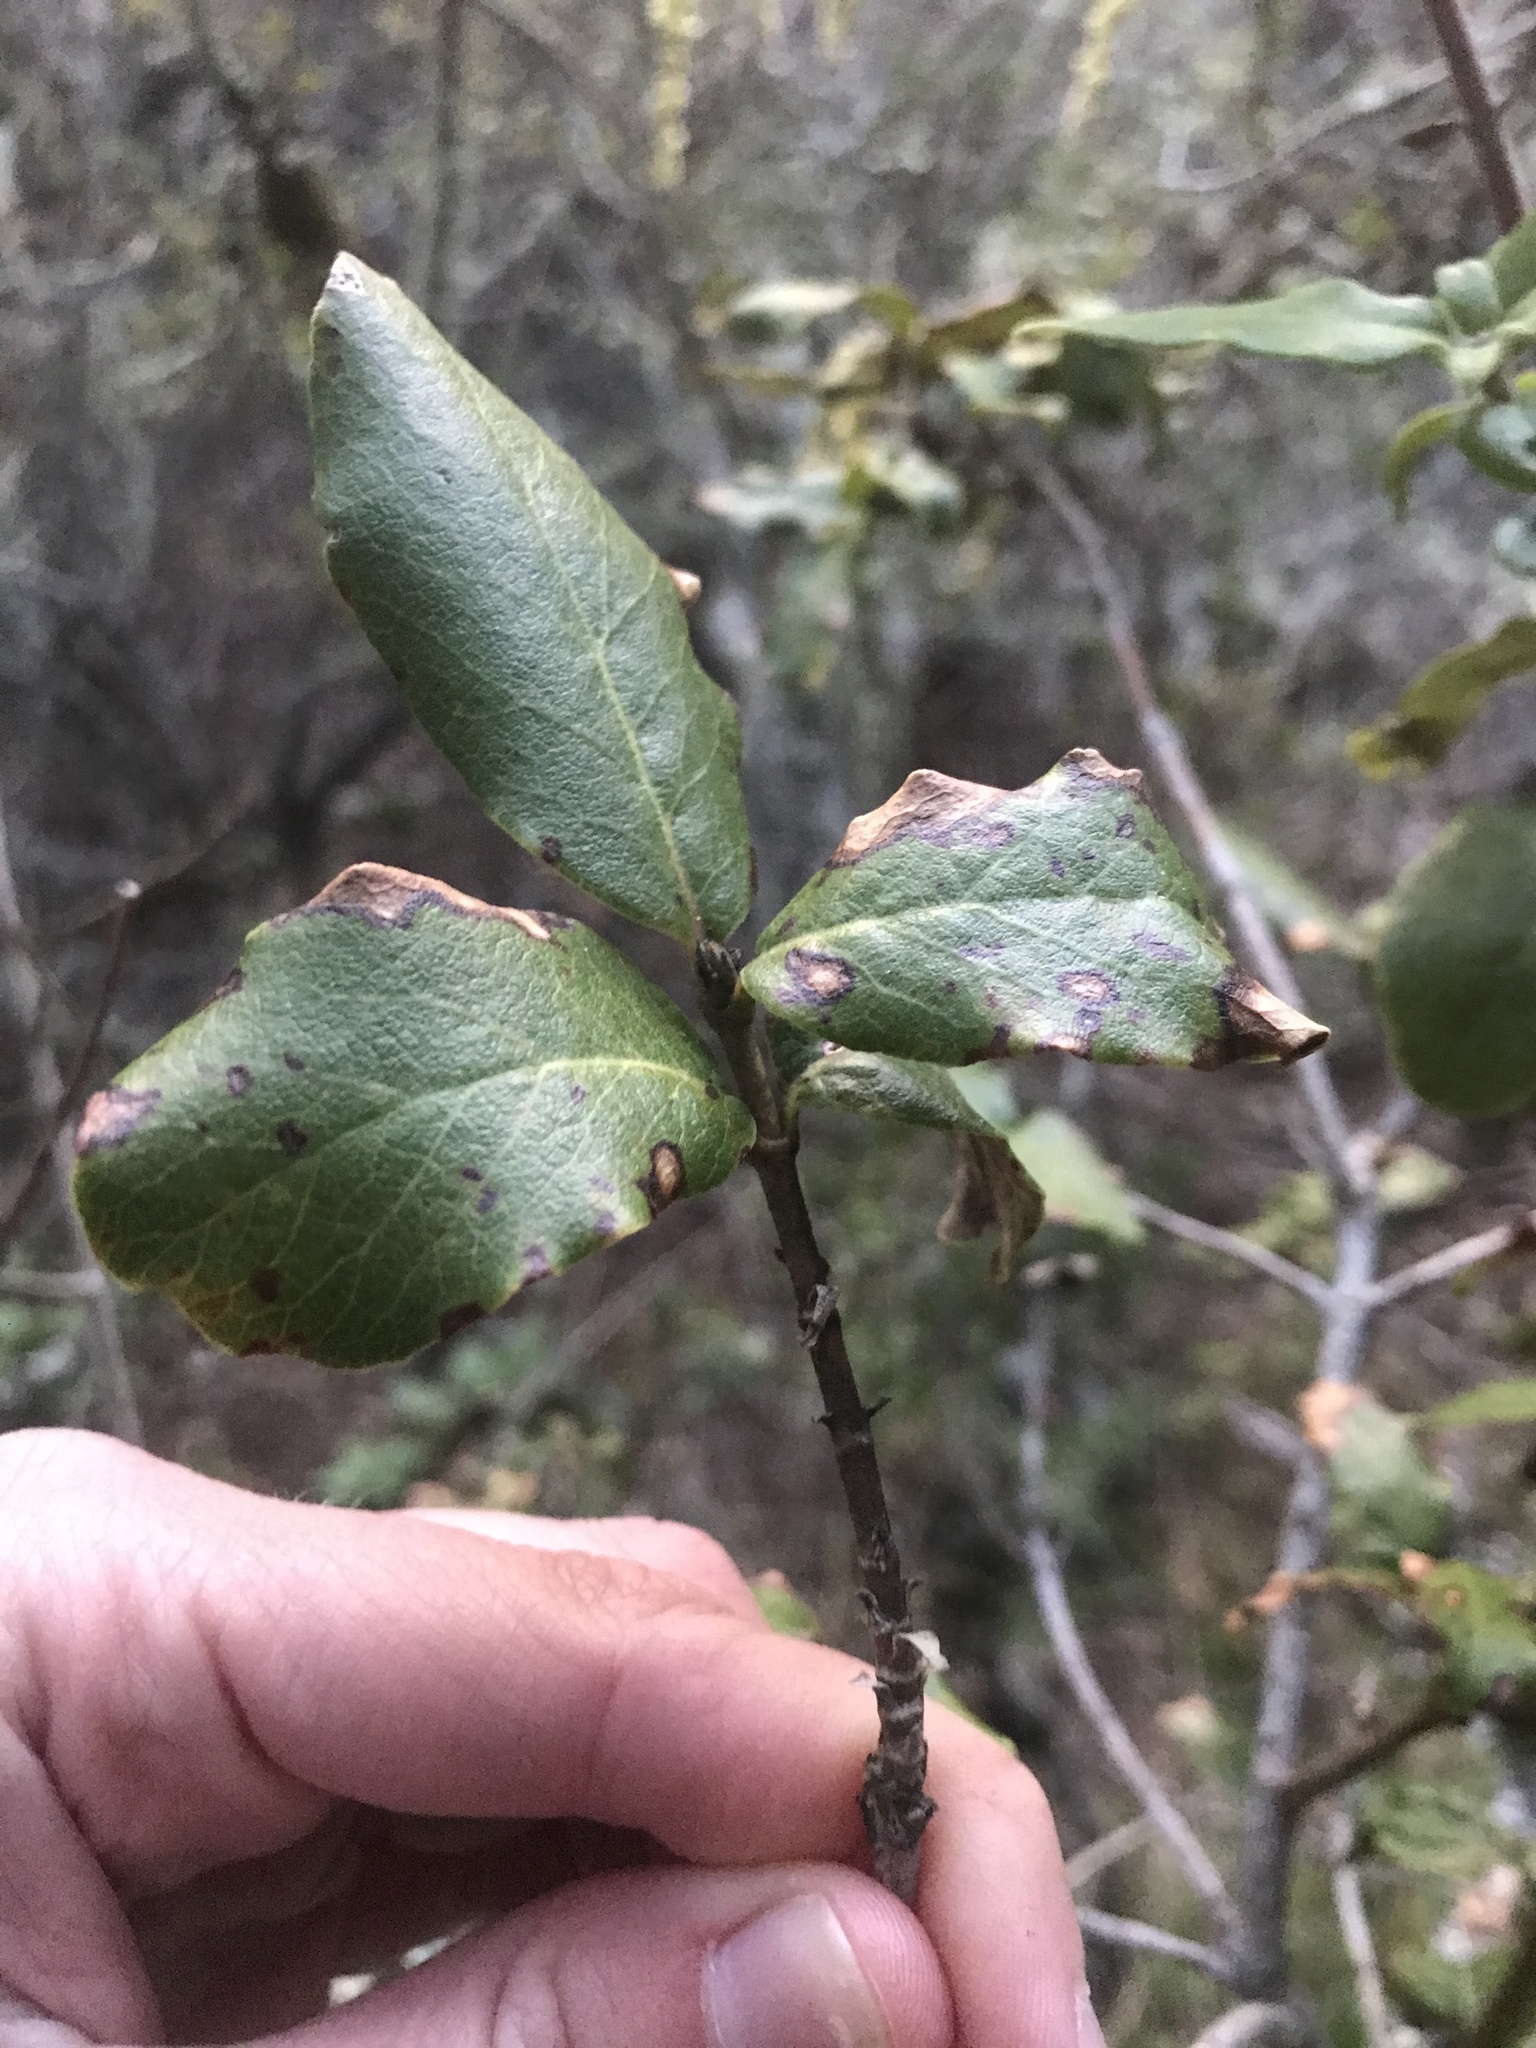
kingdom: Plantae
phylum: Tracheophyta
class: Magnoliopsida
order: Garryales
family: Garryaceae
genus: Garrya
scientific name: Garrya elliptica
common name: Silk-tassel
